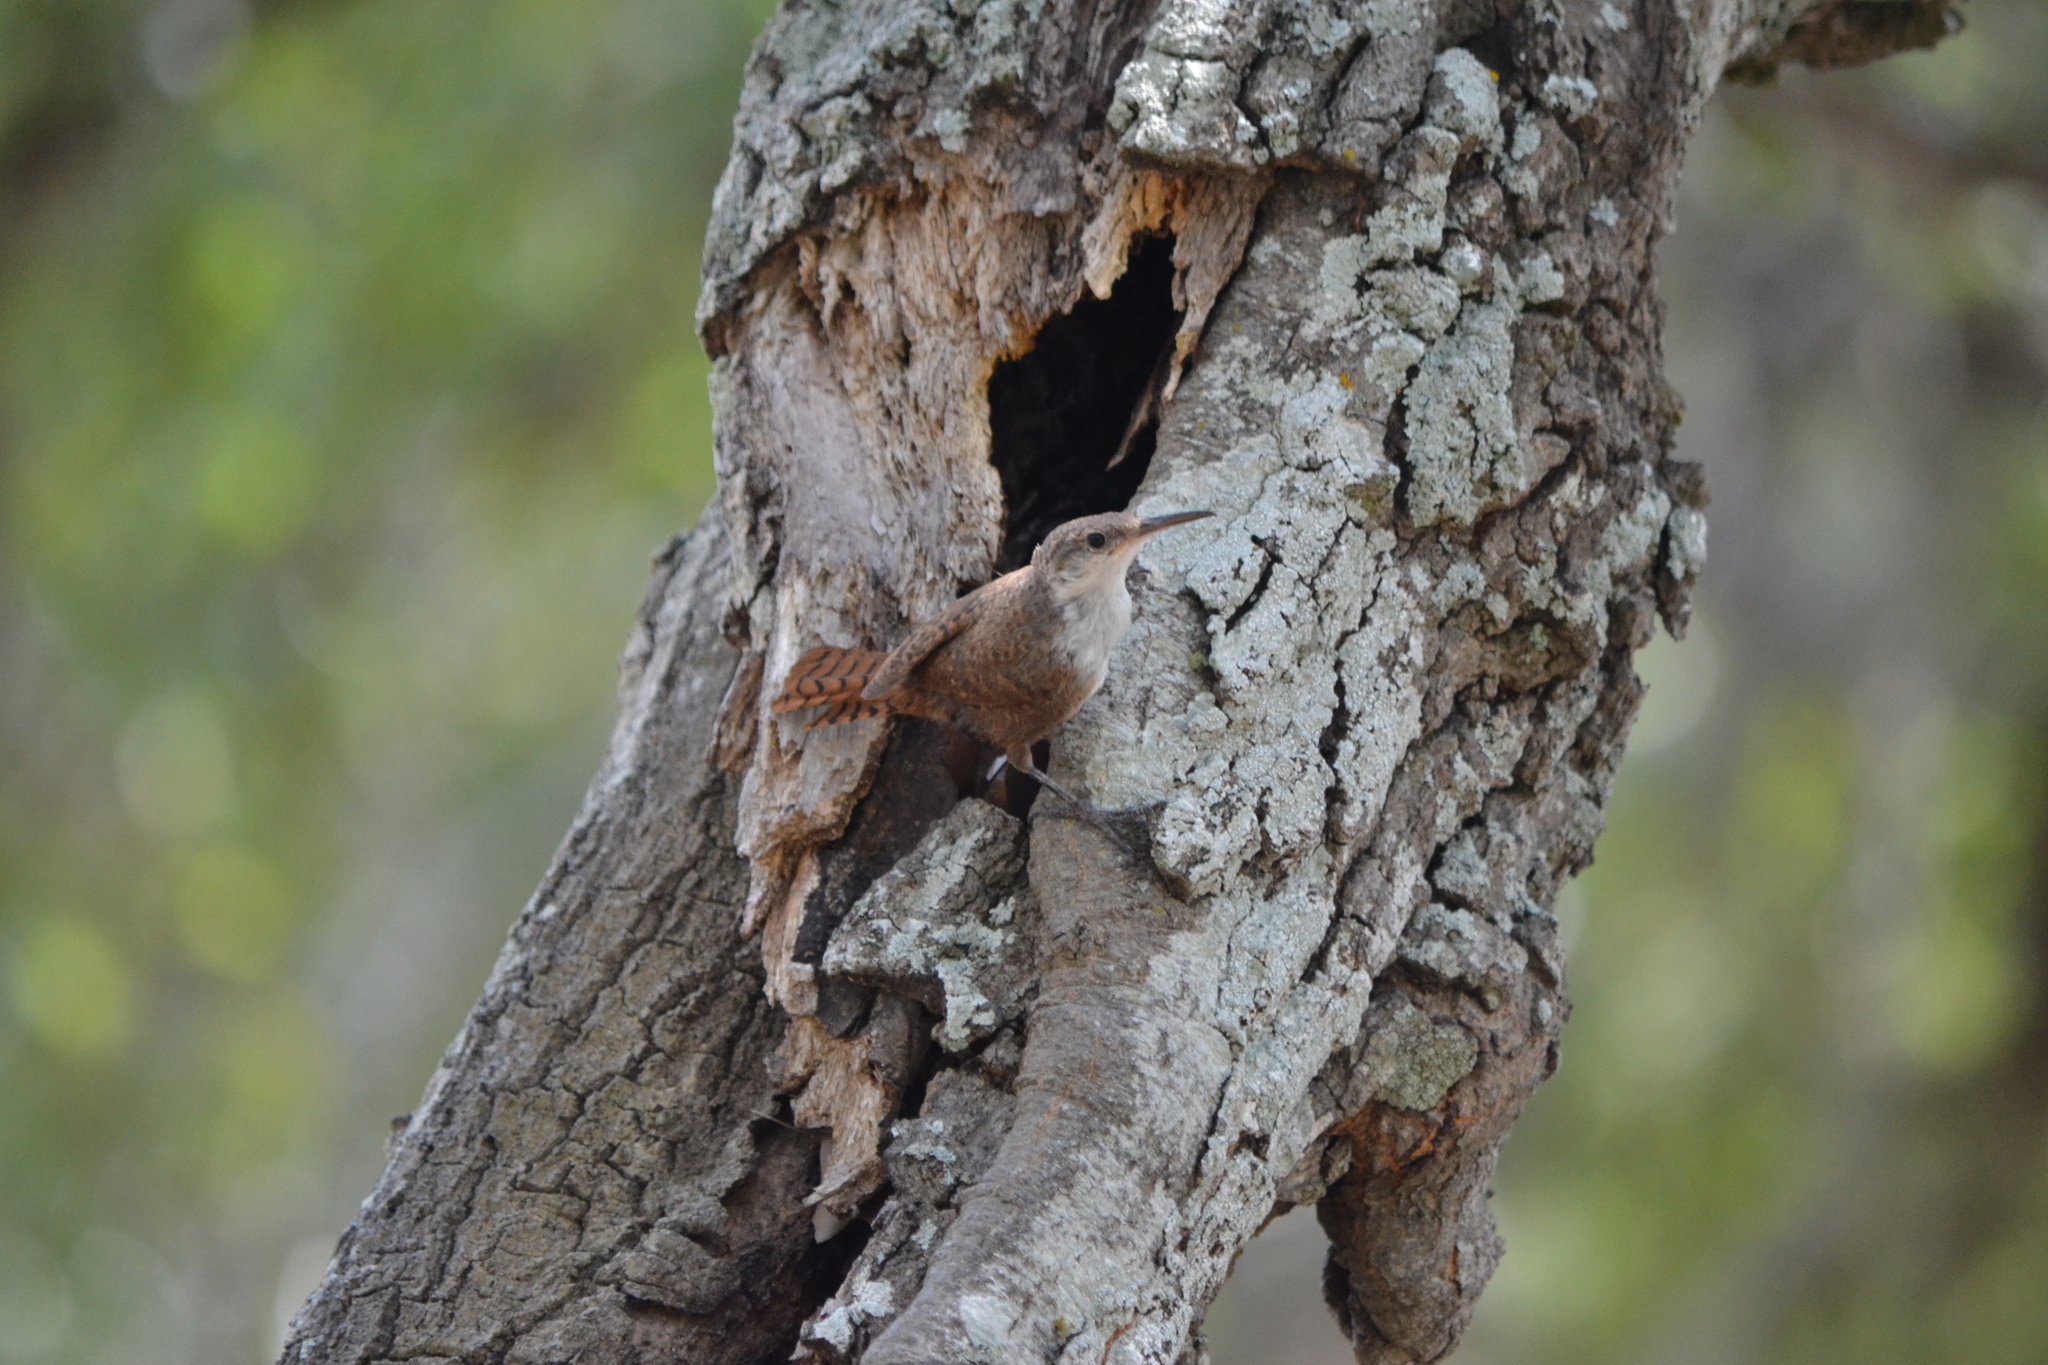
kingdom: Animalia
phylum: Chordata
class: Aves
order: Passeriformes
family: Troglodytidae
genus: Catherpes
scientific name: Catherpes mexicanus
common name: Canyon wren
